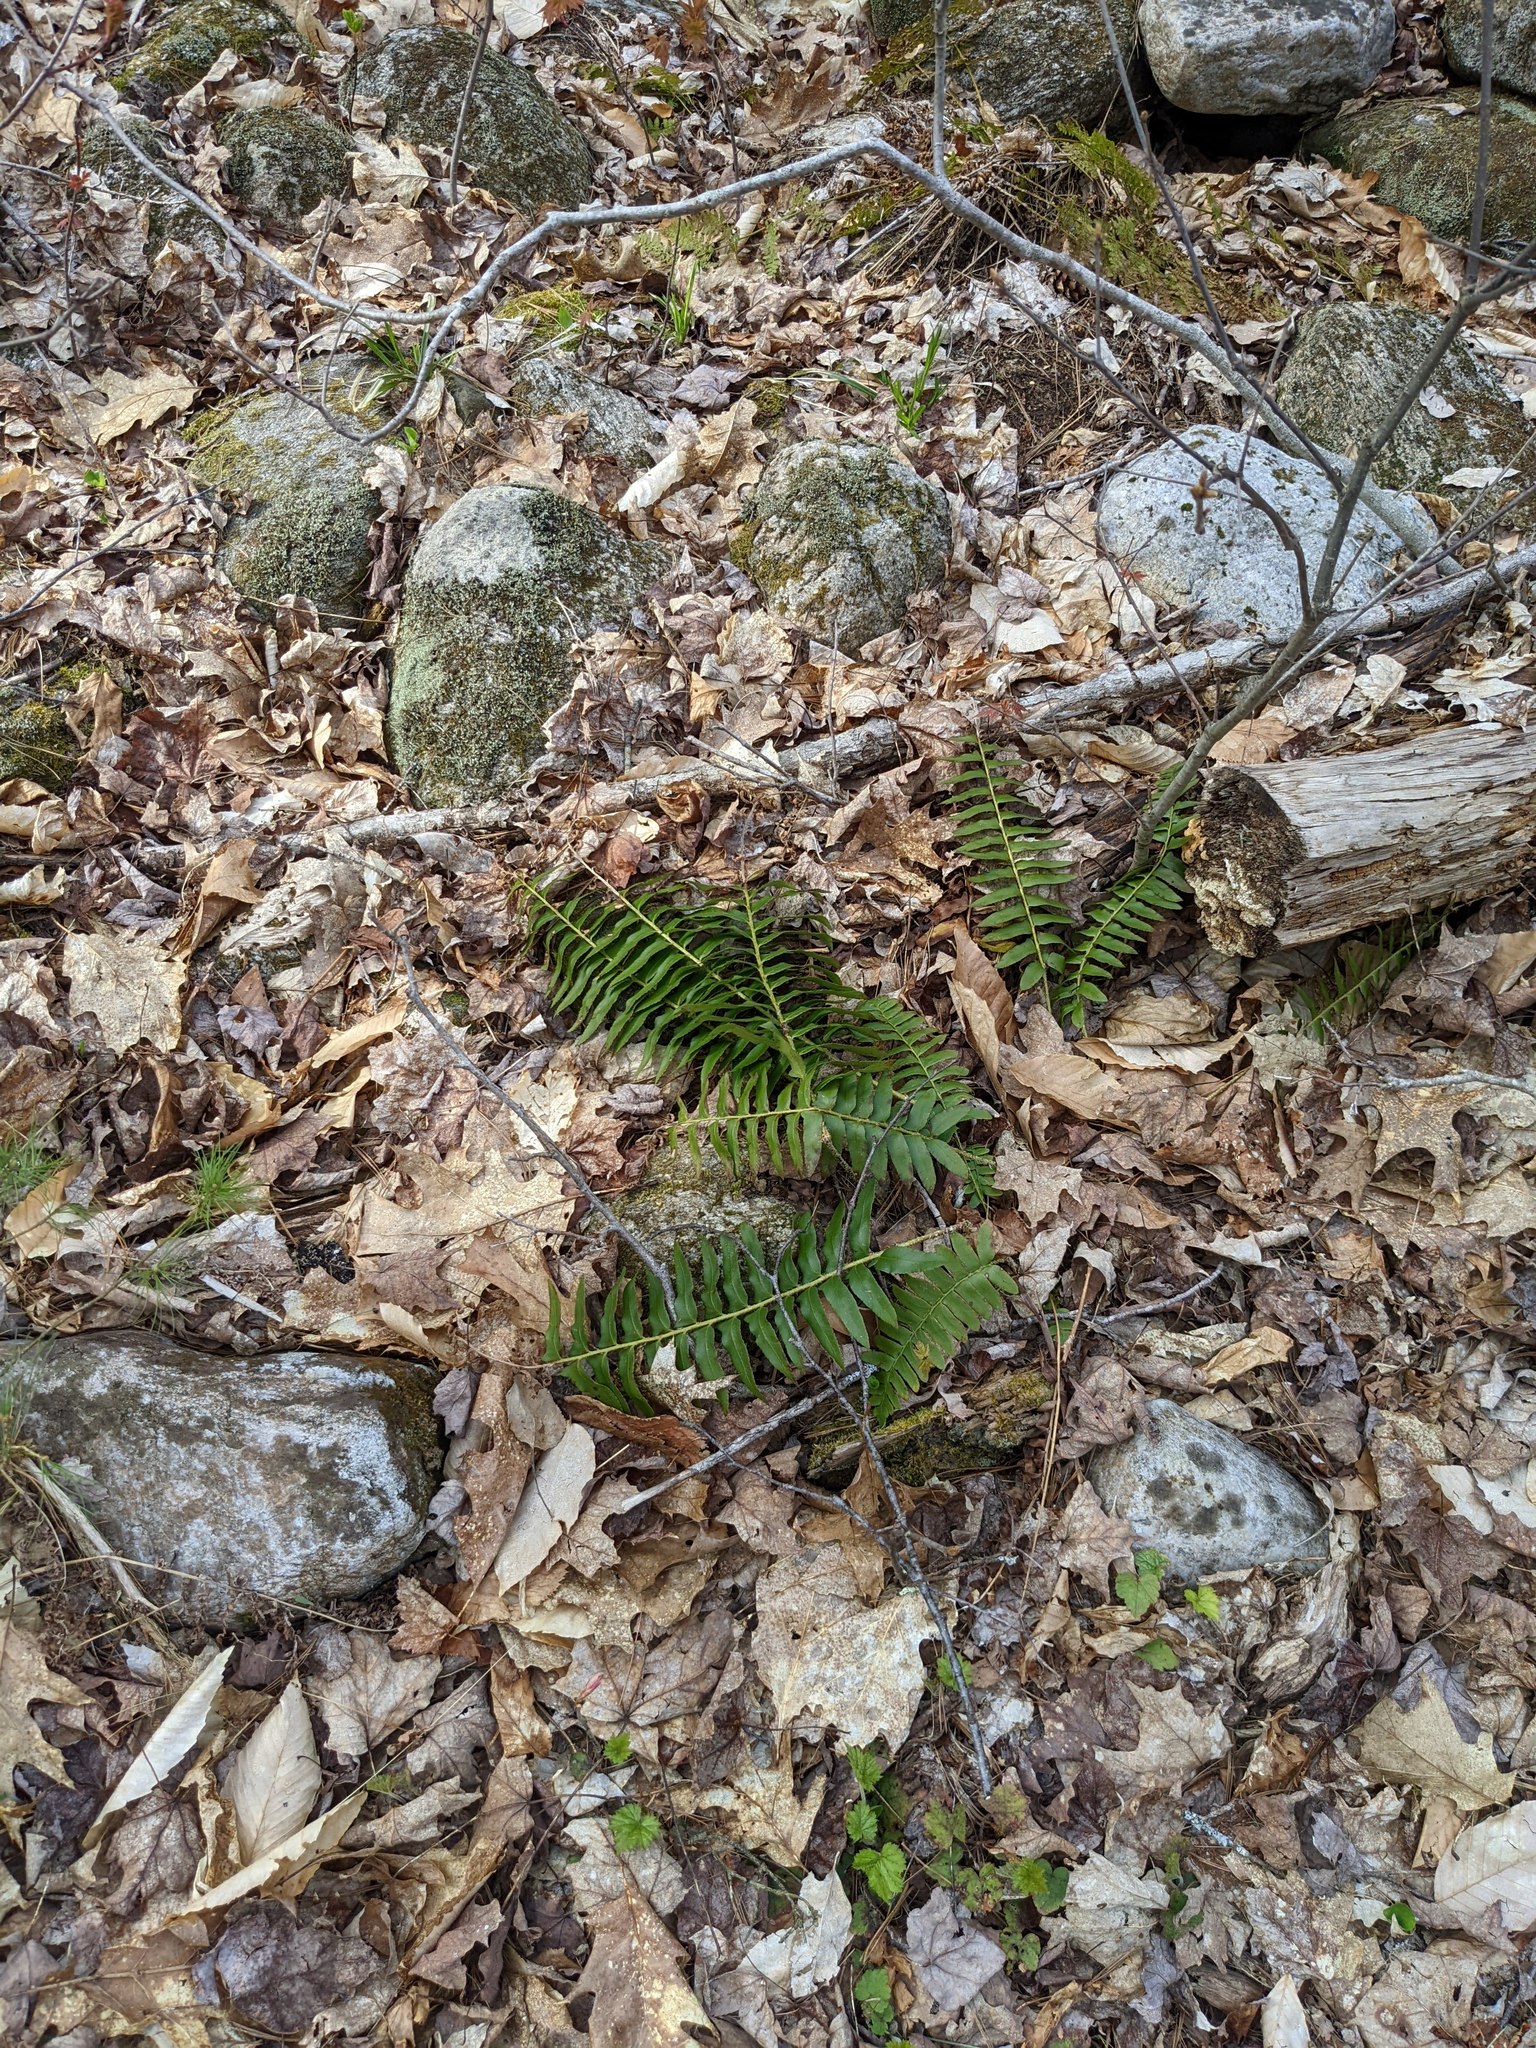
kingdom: Plantae
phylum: Tracheophyta
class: Polypodiopsida
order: Polypodiales
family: Dryopteridaceae
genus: Polystichum
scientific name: Polystichum acrostichoides
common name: Christmas fern
